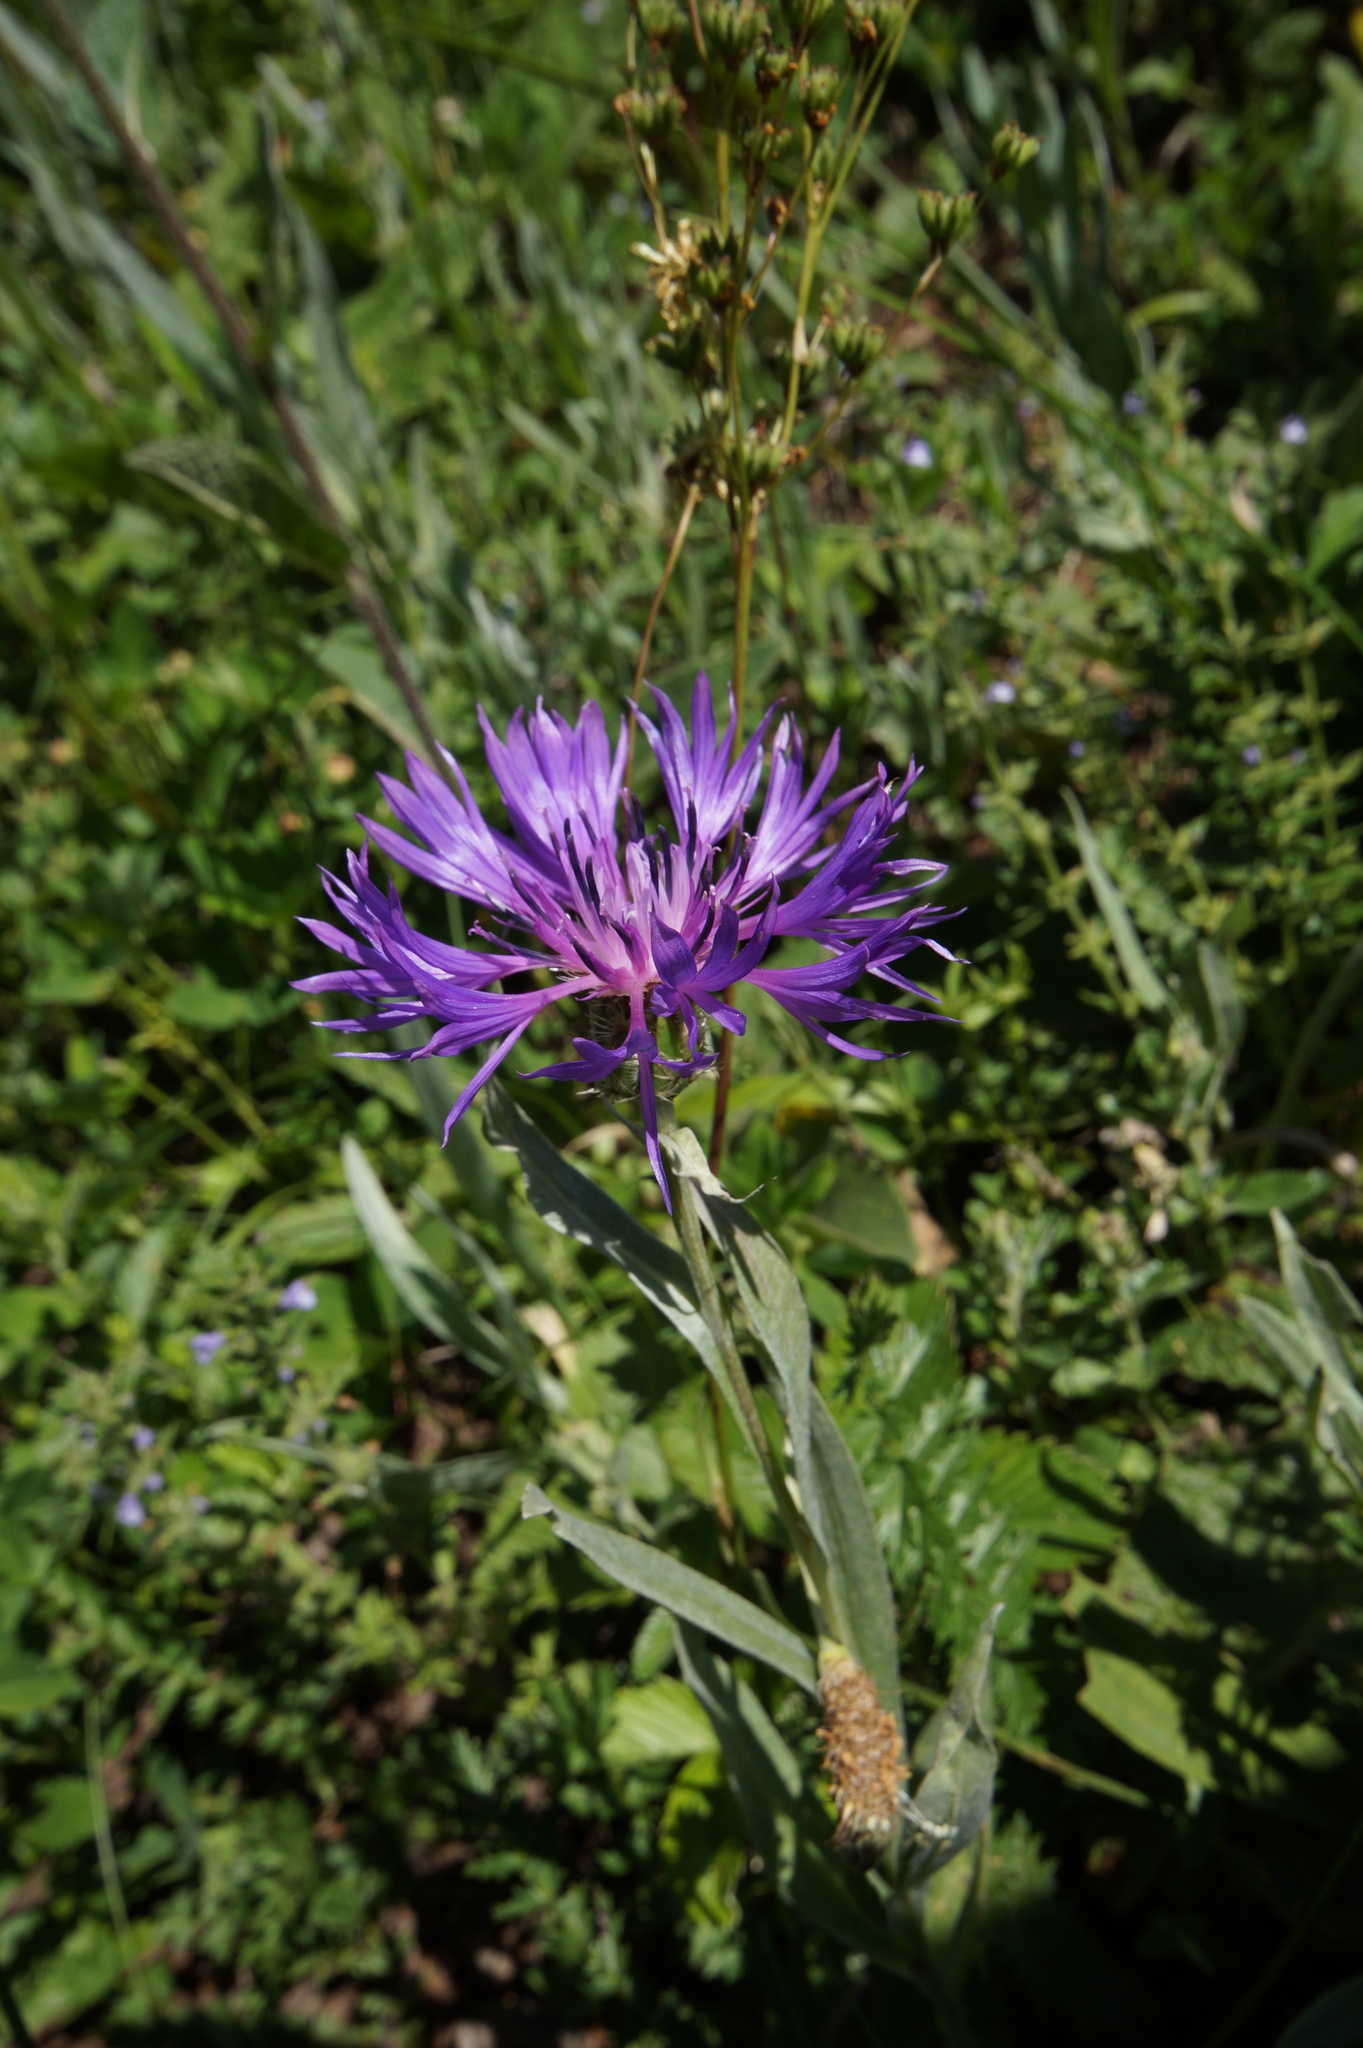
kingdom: Plantae
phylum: Tracheophyta
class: Magnoliopsida
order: Asterales
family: Asteraceae
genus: Centaurea
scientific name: Centaurea fuscomarginata
